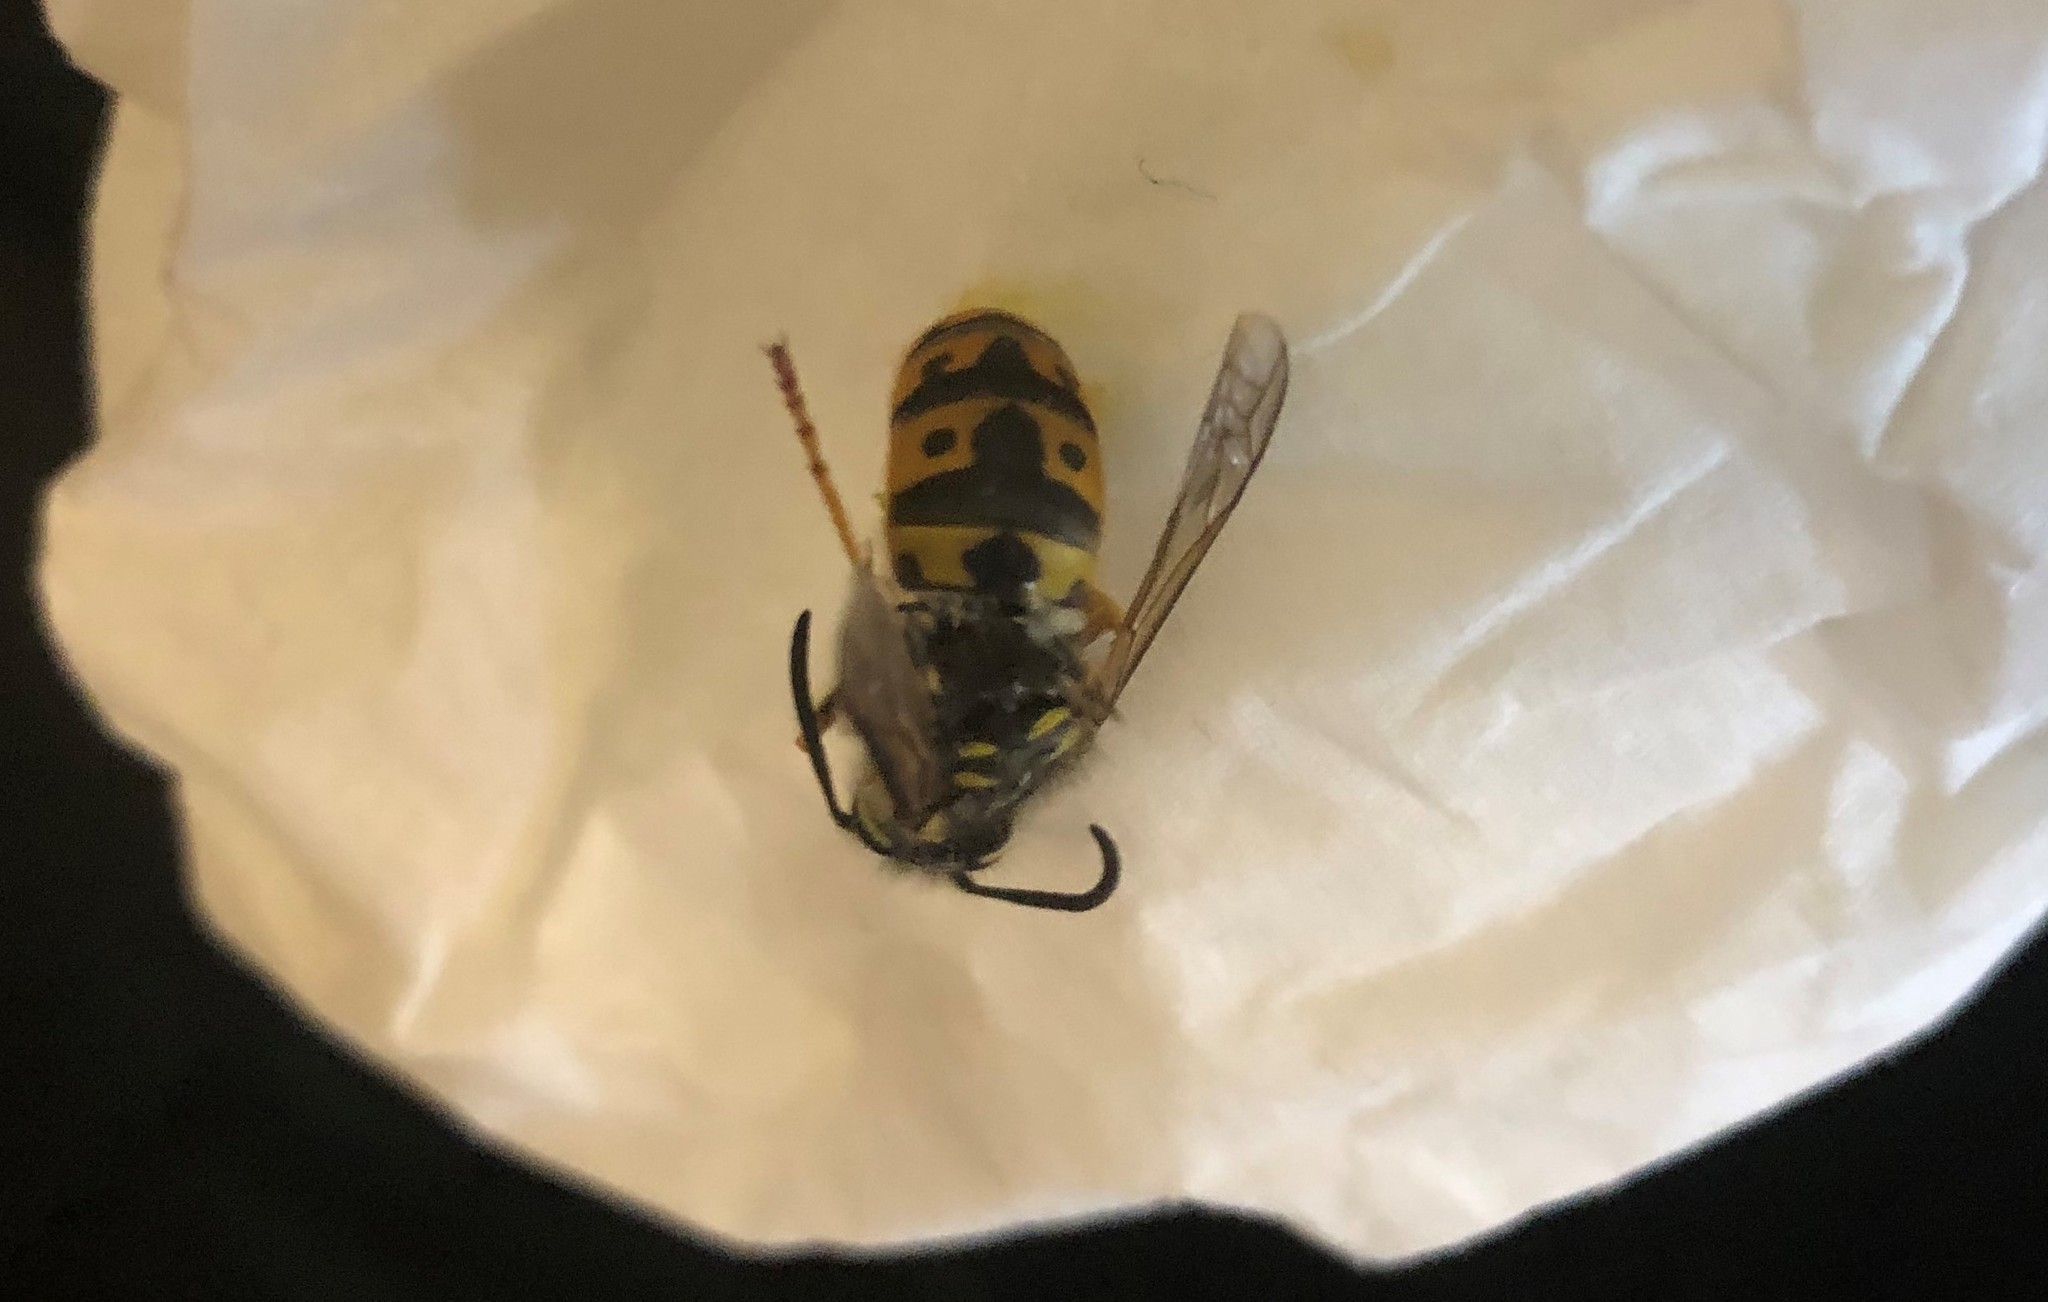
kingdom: Animalia
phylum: Arthropoda
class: Insecta
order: Hymenoptera
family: Vespidae
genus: Vespula
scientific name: Vespula germanica
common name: German wasp
